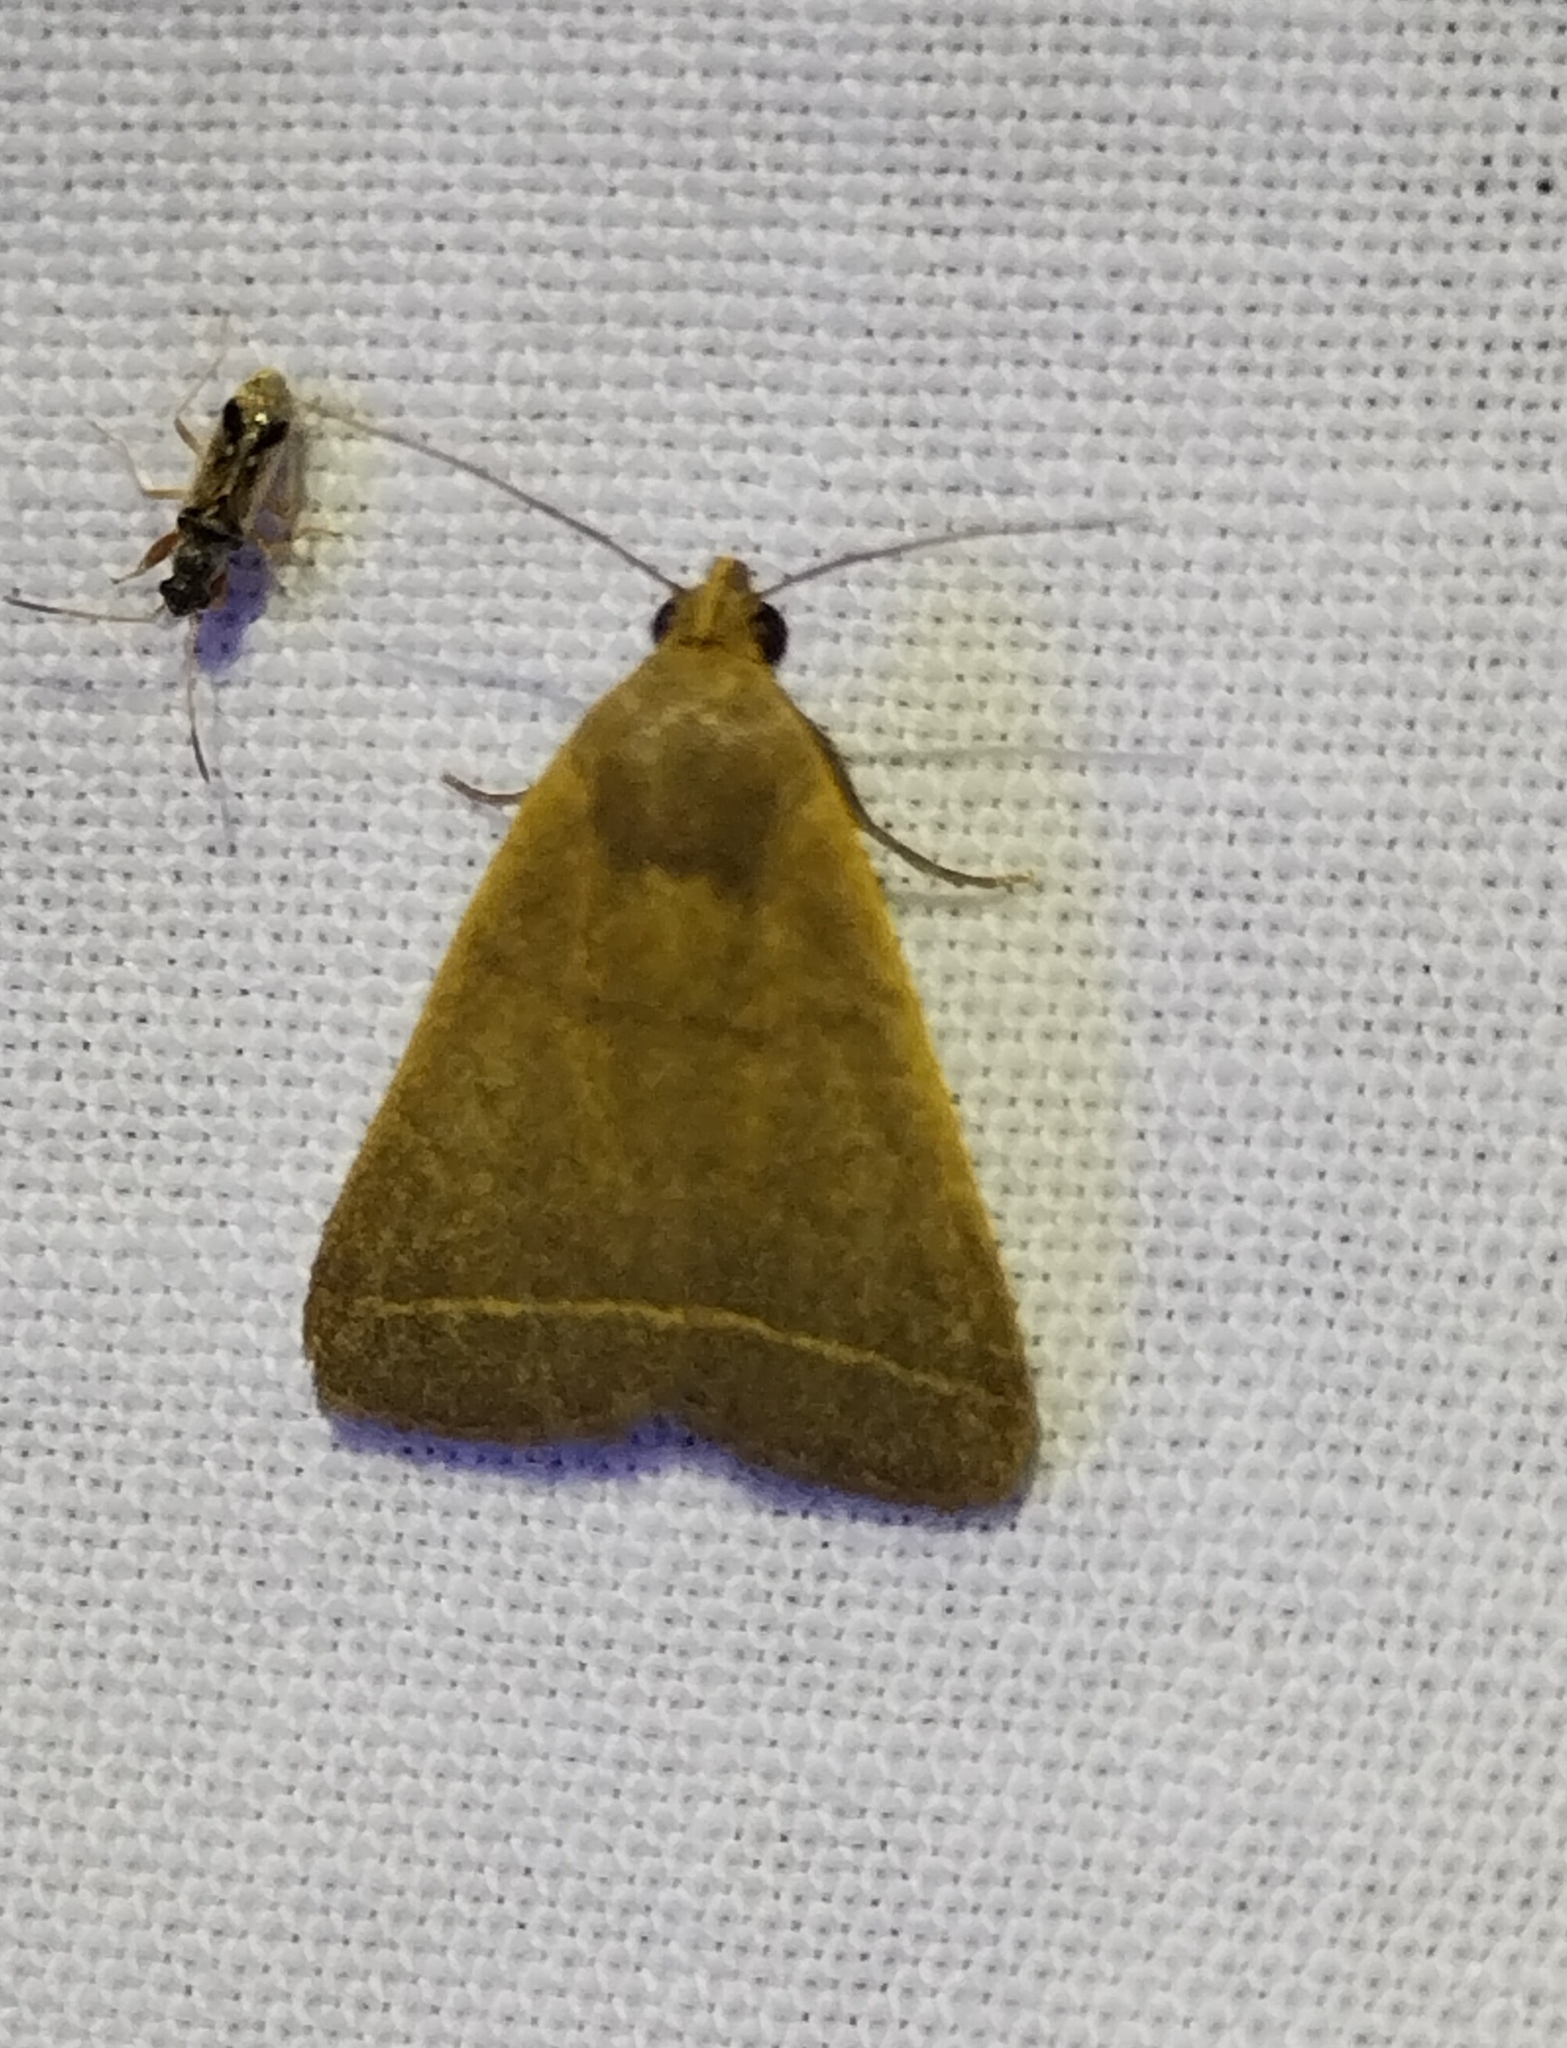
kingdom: Animalia
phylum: Arthropoda
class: Insecta
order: Lepidoptera
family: Erebidae
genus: Simplicia
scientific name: Simplicia cornicalis
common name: Tiki hut litter moth
